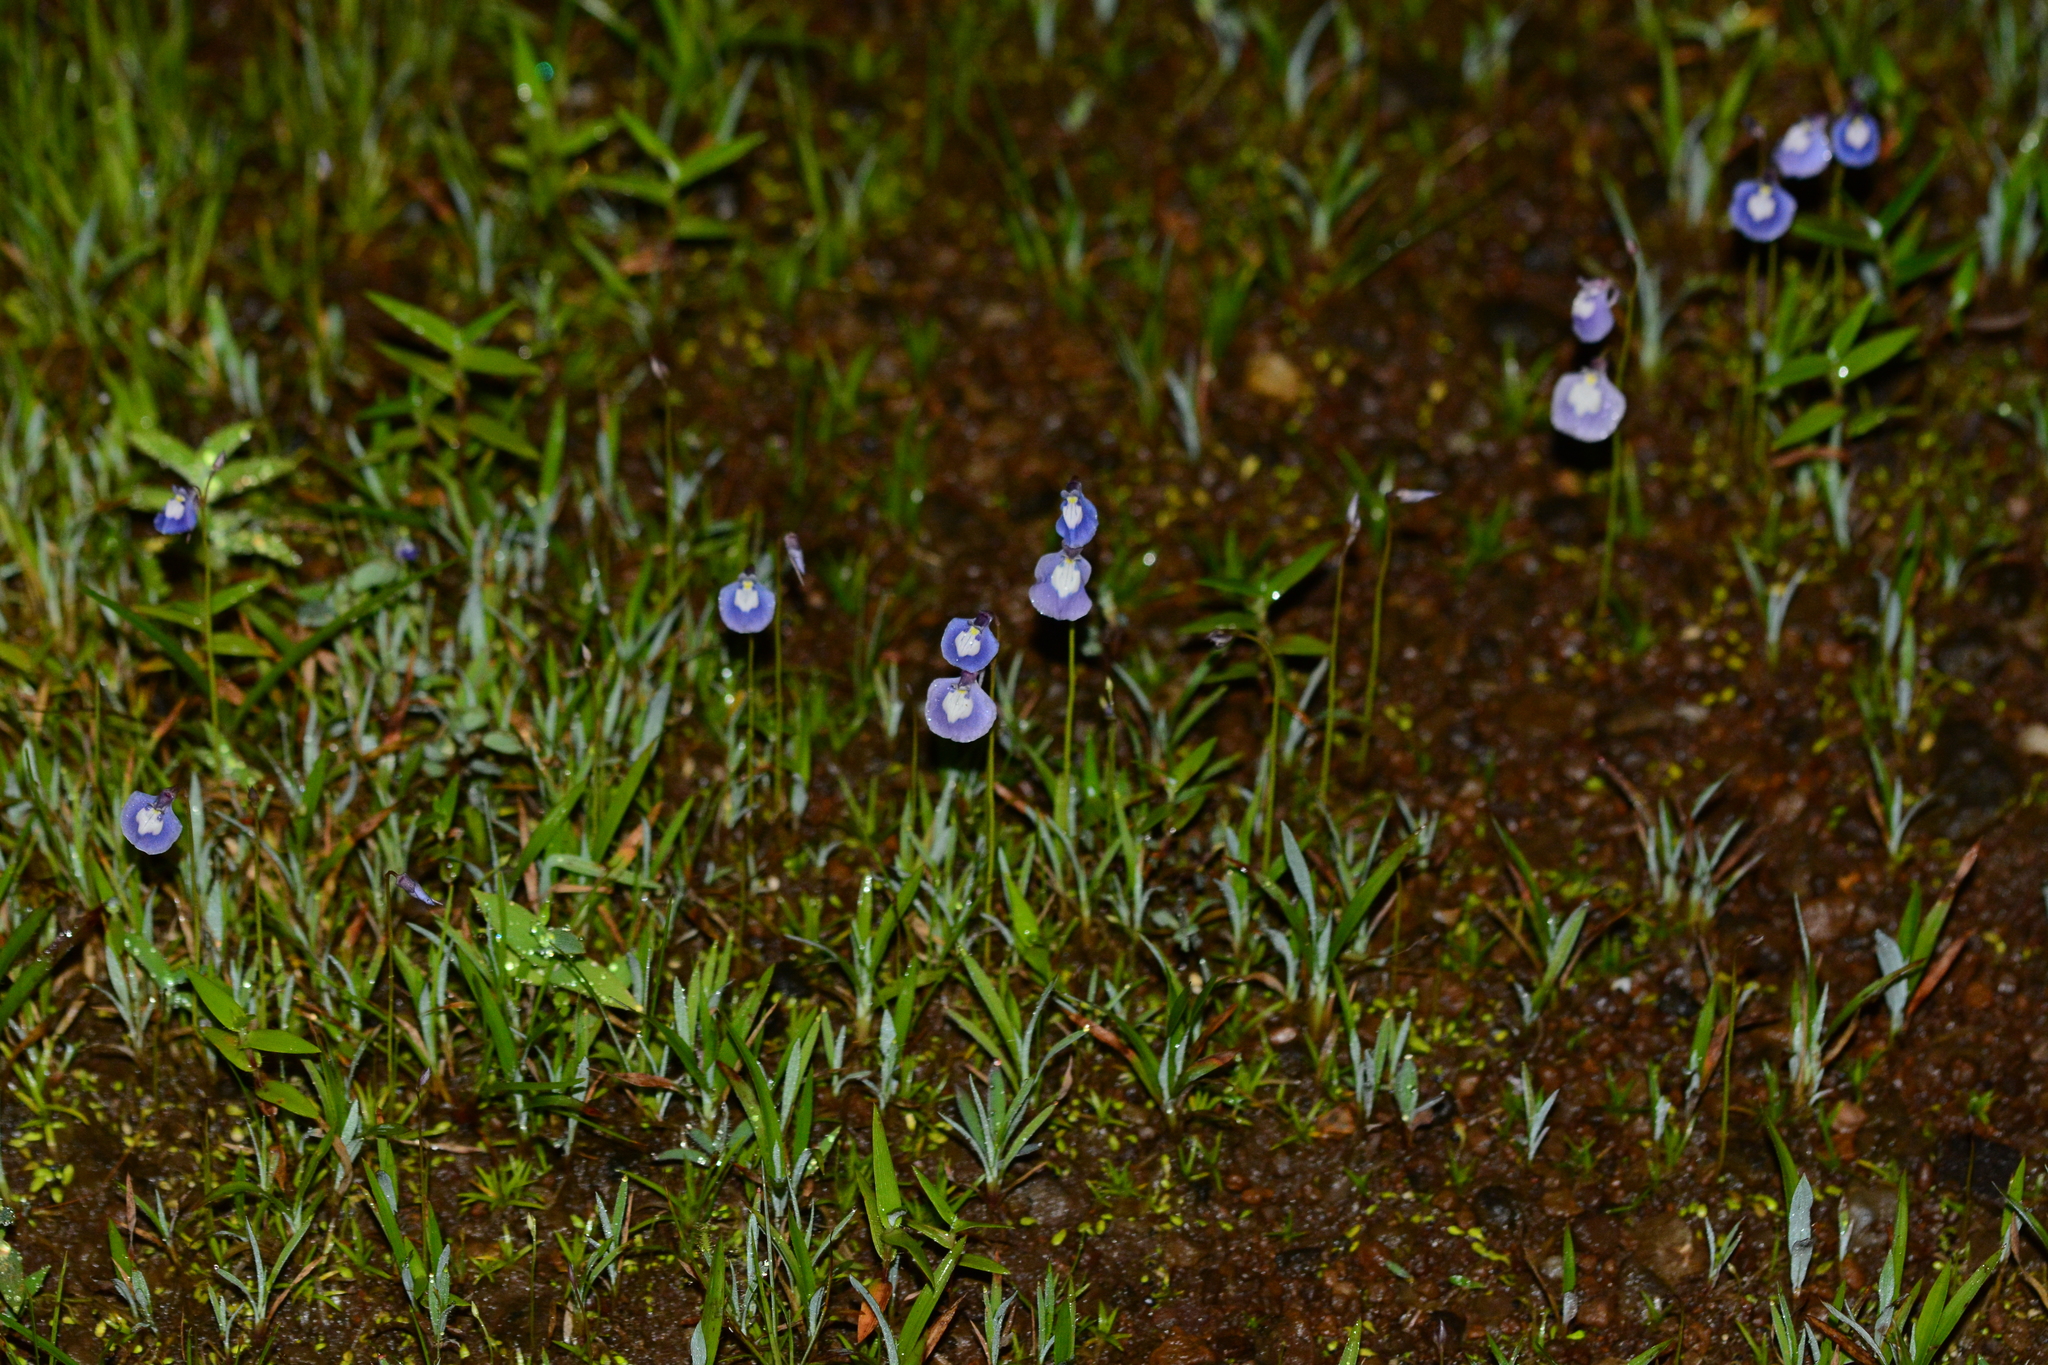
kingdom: Plantae
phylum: Tracheophyta
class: Magnoliopsida
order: Lamiales
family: Lentibulariaceae
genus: Utricularia
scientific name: Utricularia arcuata
